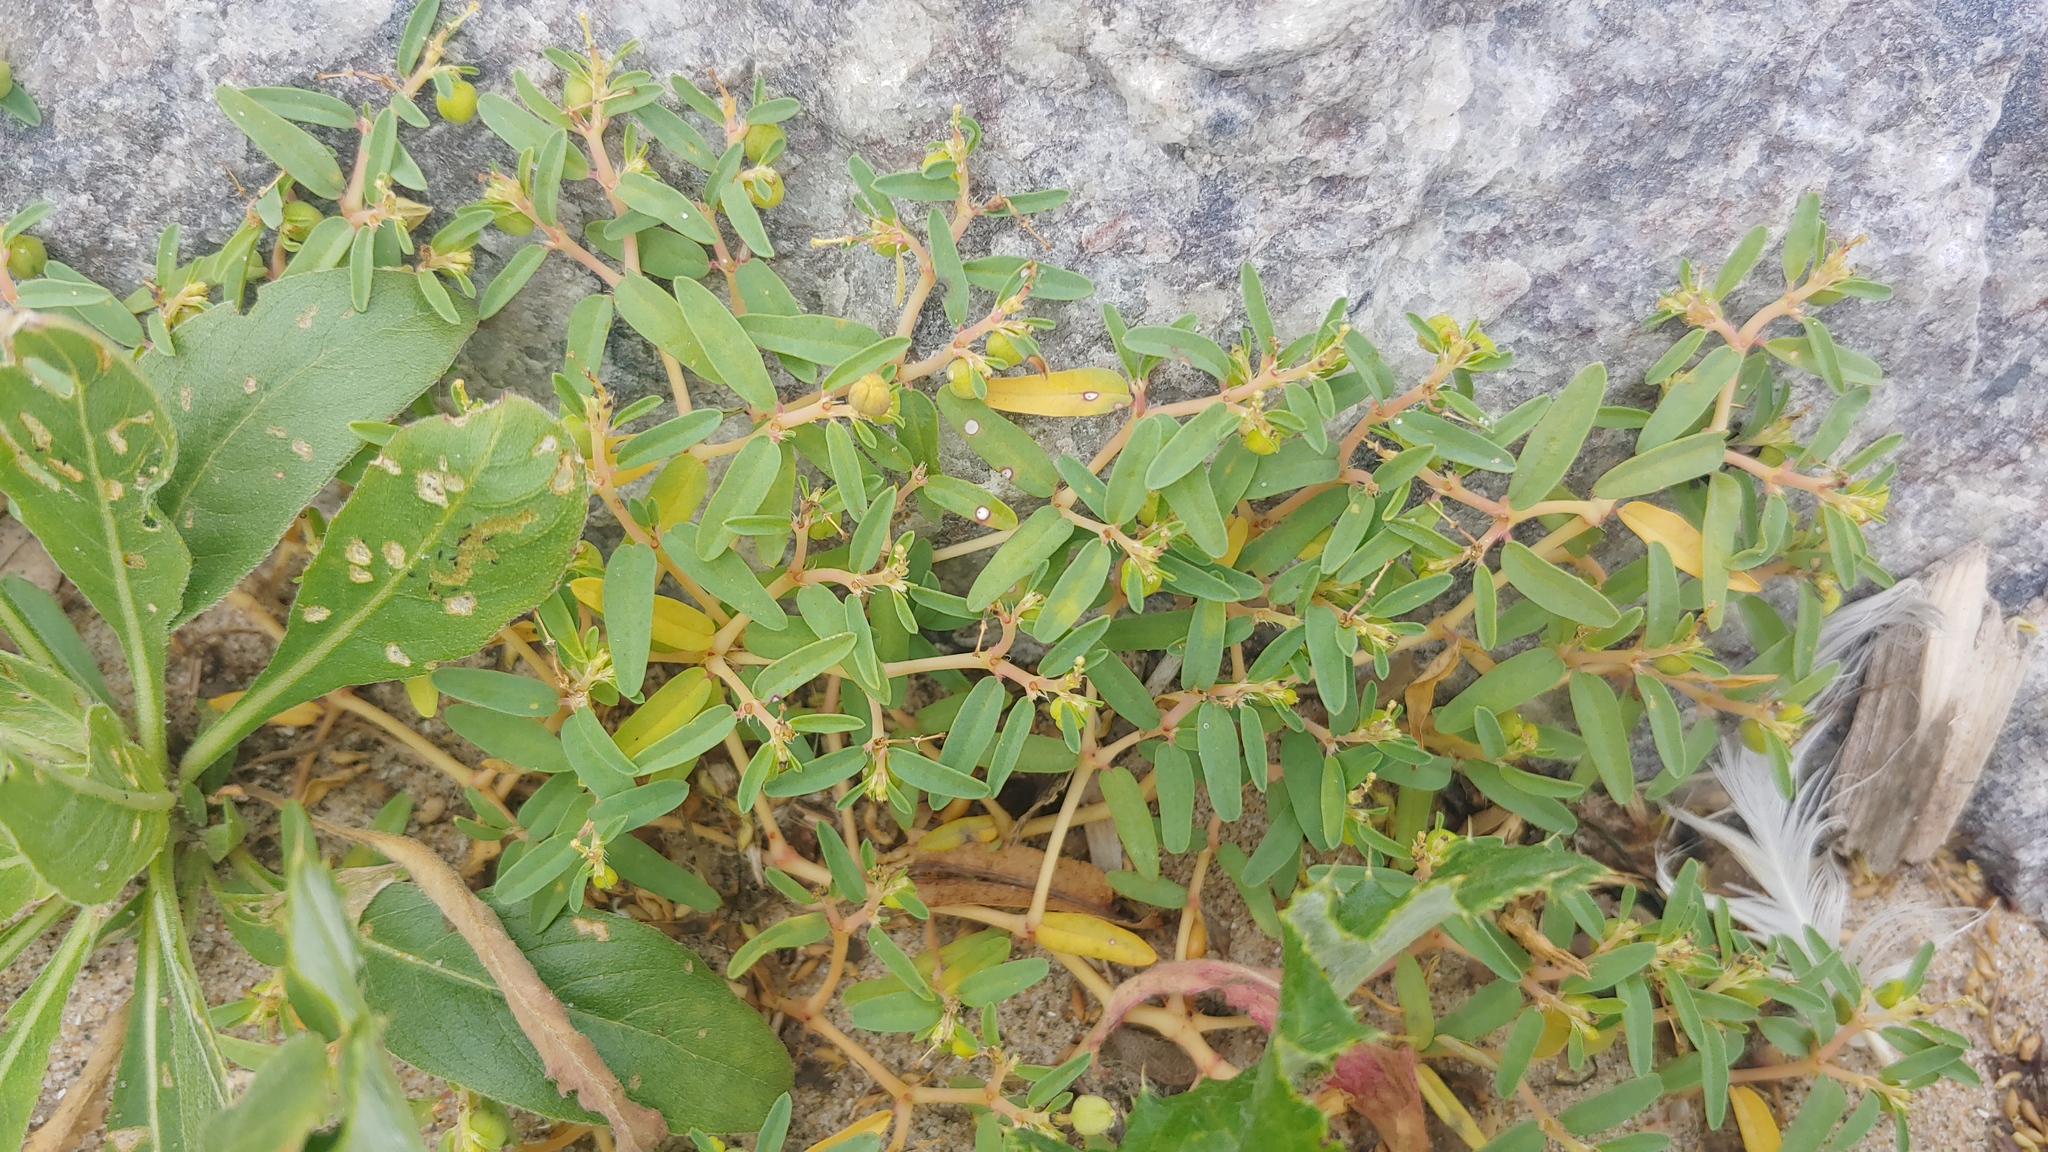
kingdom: Plantae
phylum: Tracheophyta
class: Magnoliopsida
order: Malpighiales
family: Euphorbiaceae
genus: Euphorbia
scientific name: Euphorbia polygonifolia
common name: Knotweed spurge
